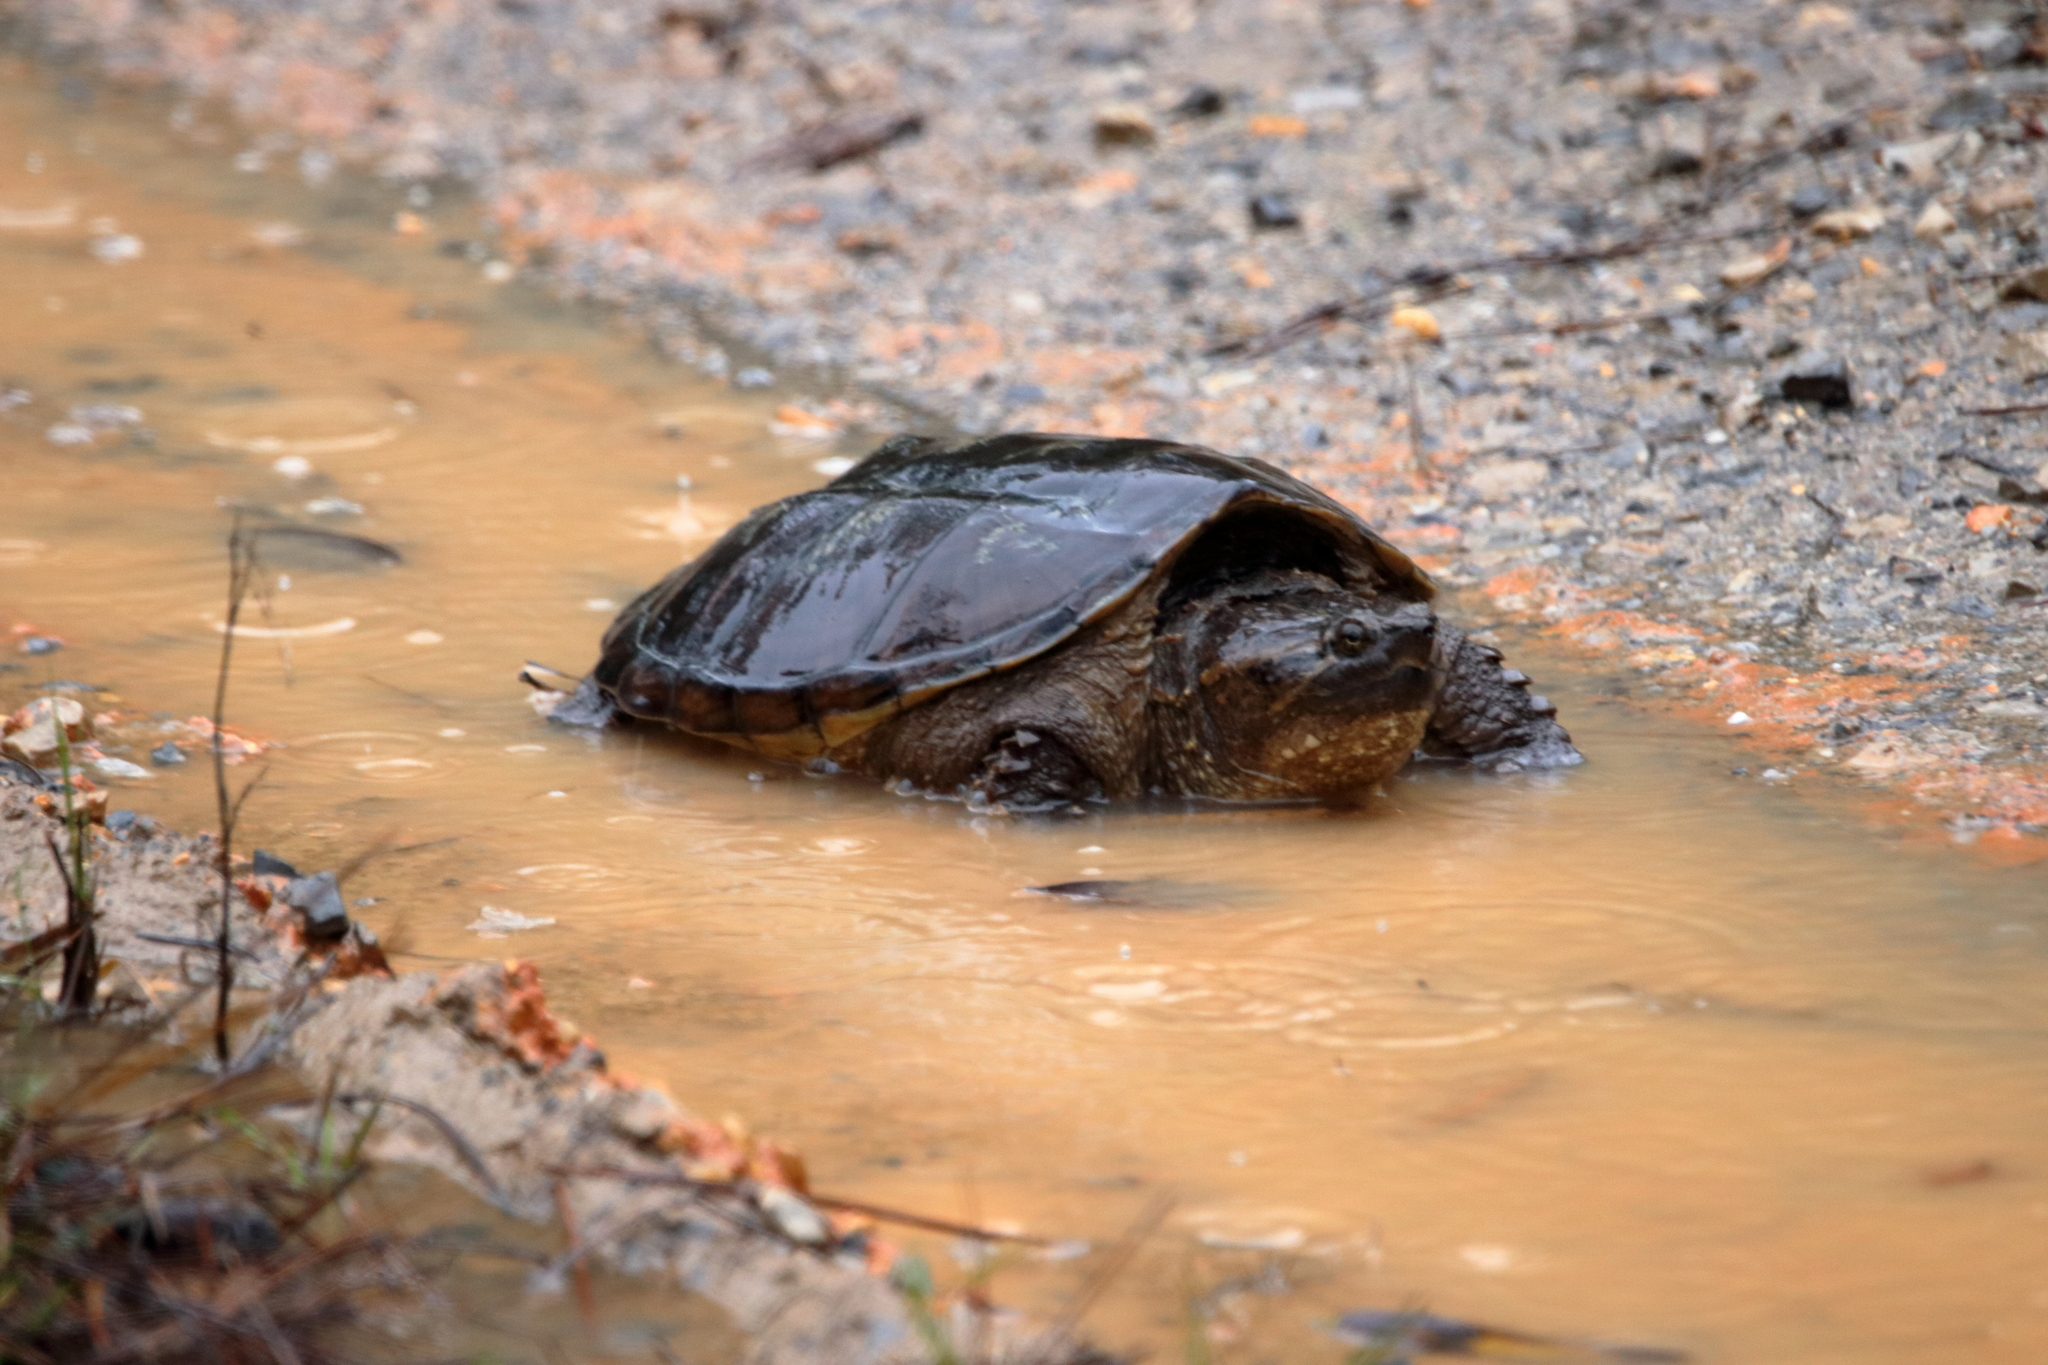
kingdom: Animalia
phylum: Chordata
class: Testudines
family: Chelydridae
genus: Chelydra
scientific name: Chelydra serpentina
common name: Common snapping turtle
